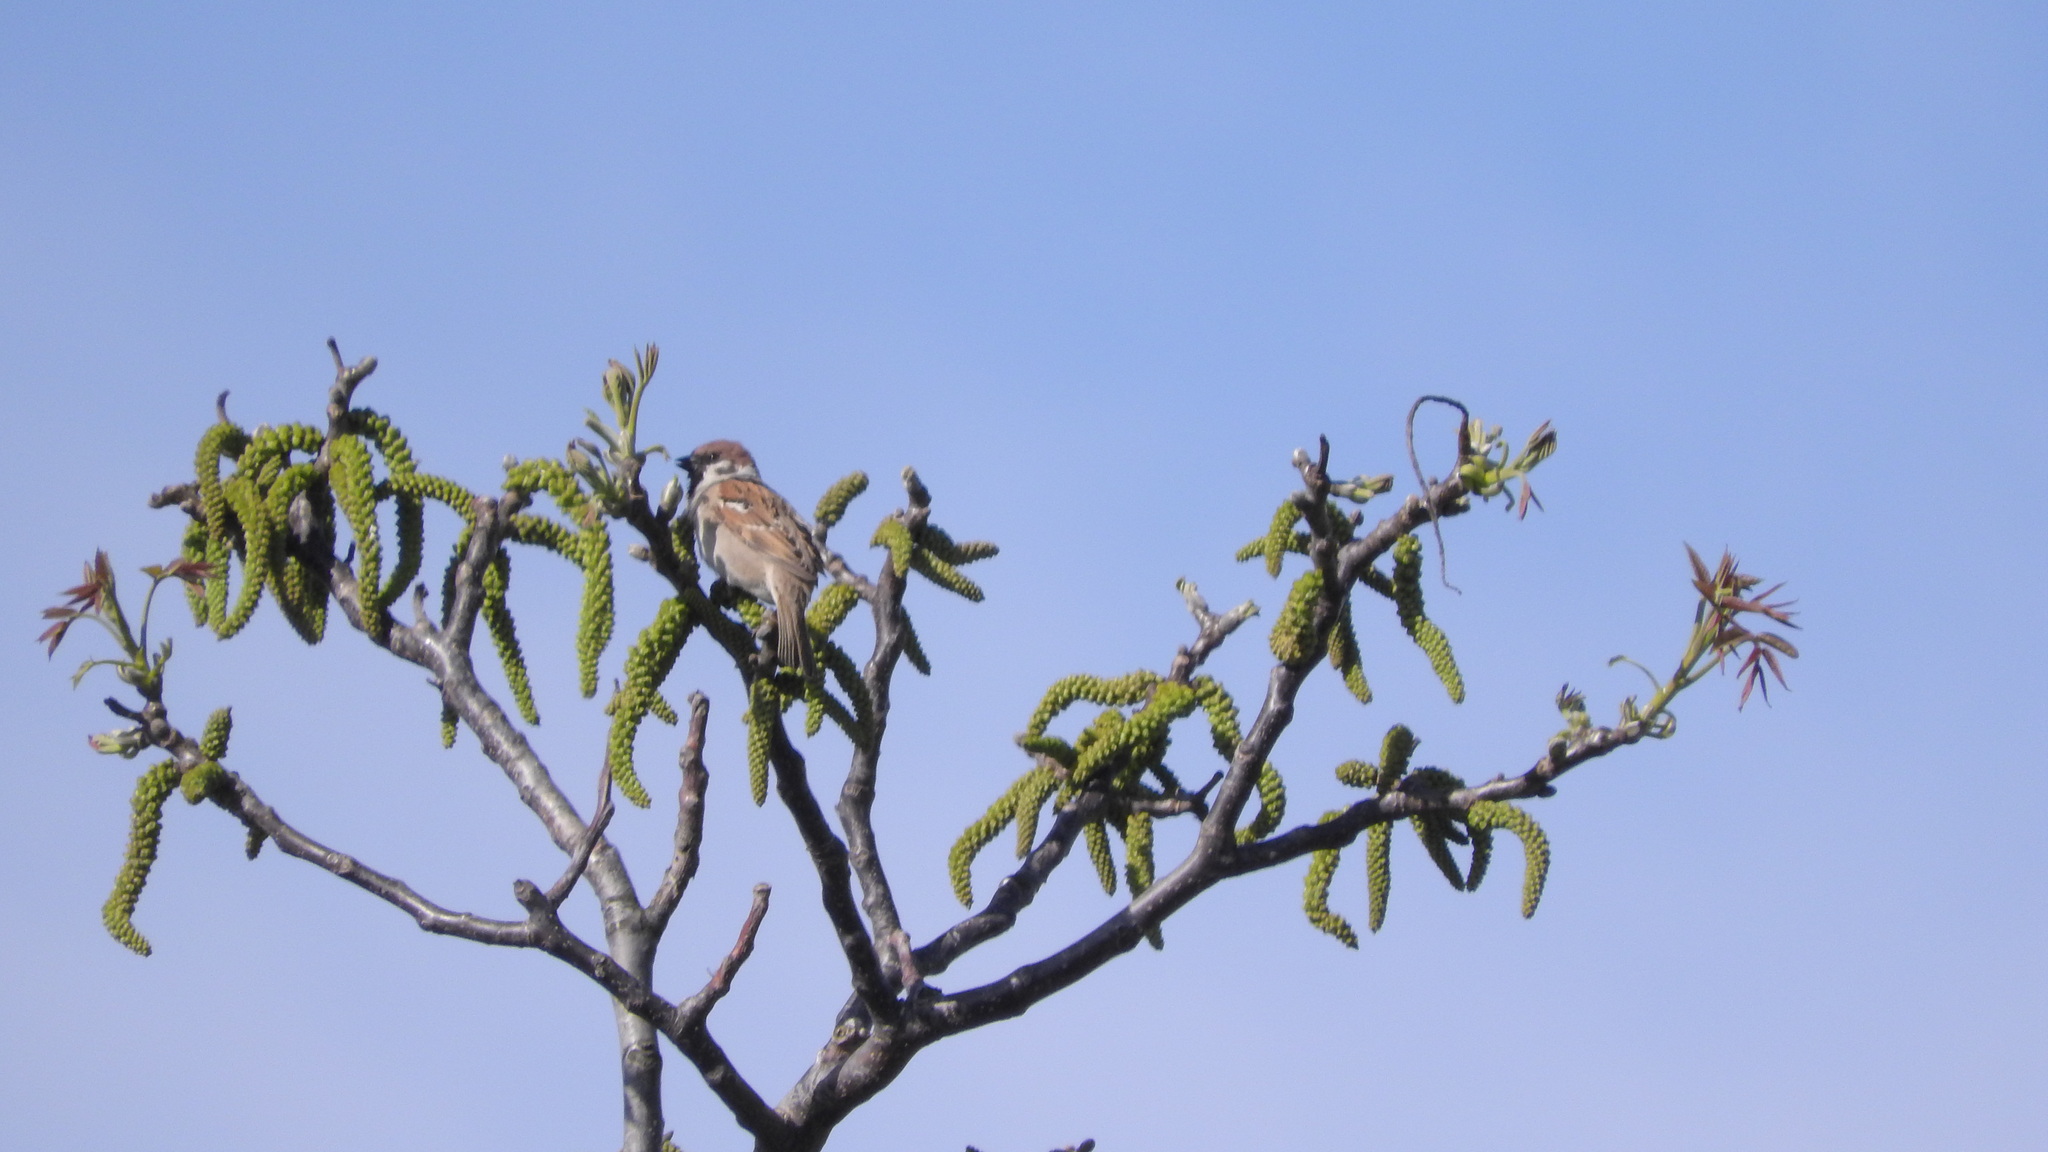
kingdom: Animalia
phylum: Chordata
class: Aves
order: Passeriformes
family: Passeridae
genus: Passer
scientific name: Passer montanus
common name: Eurasian tree sparrow
